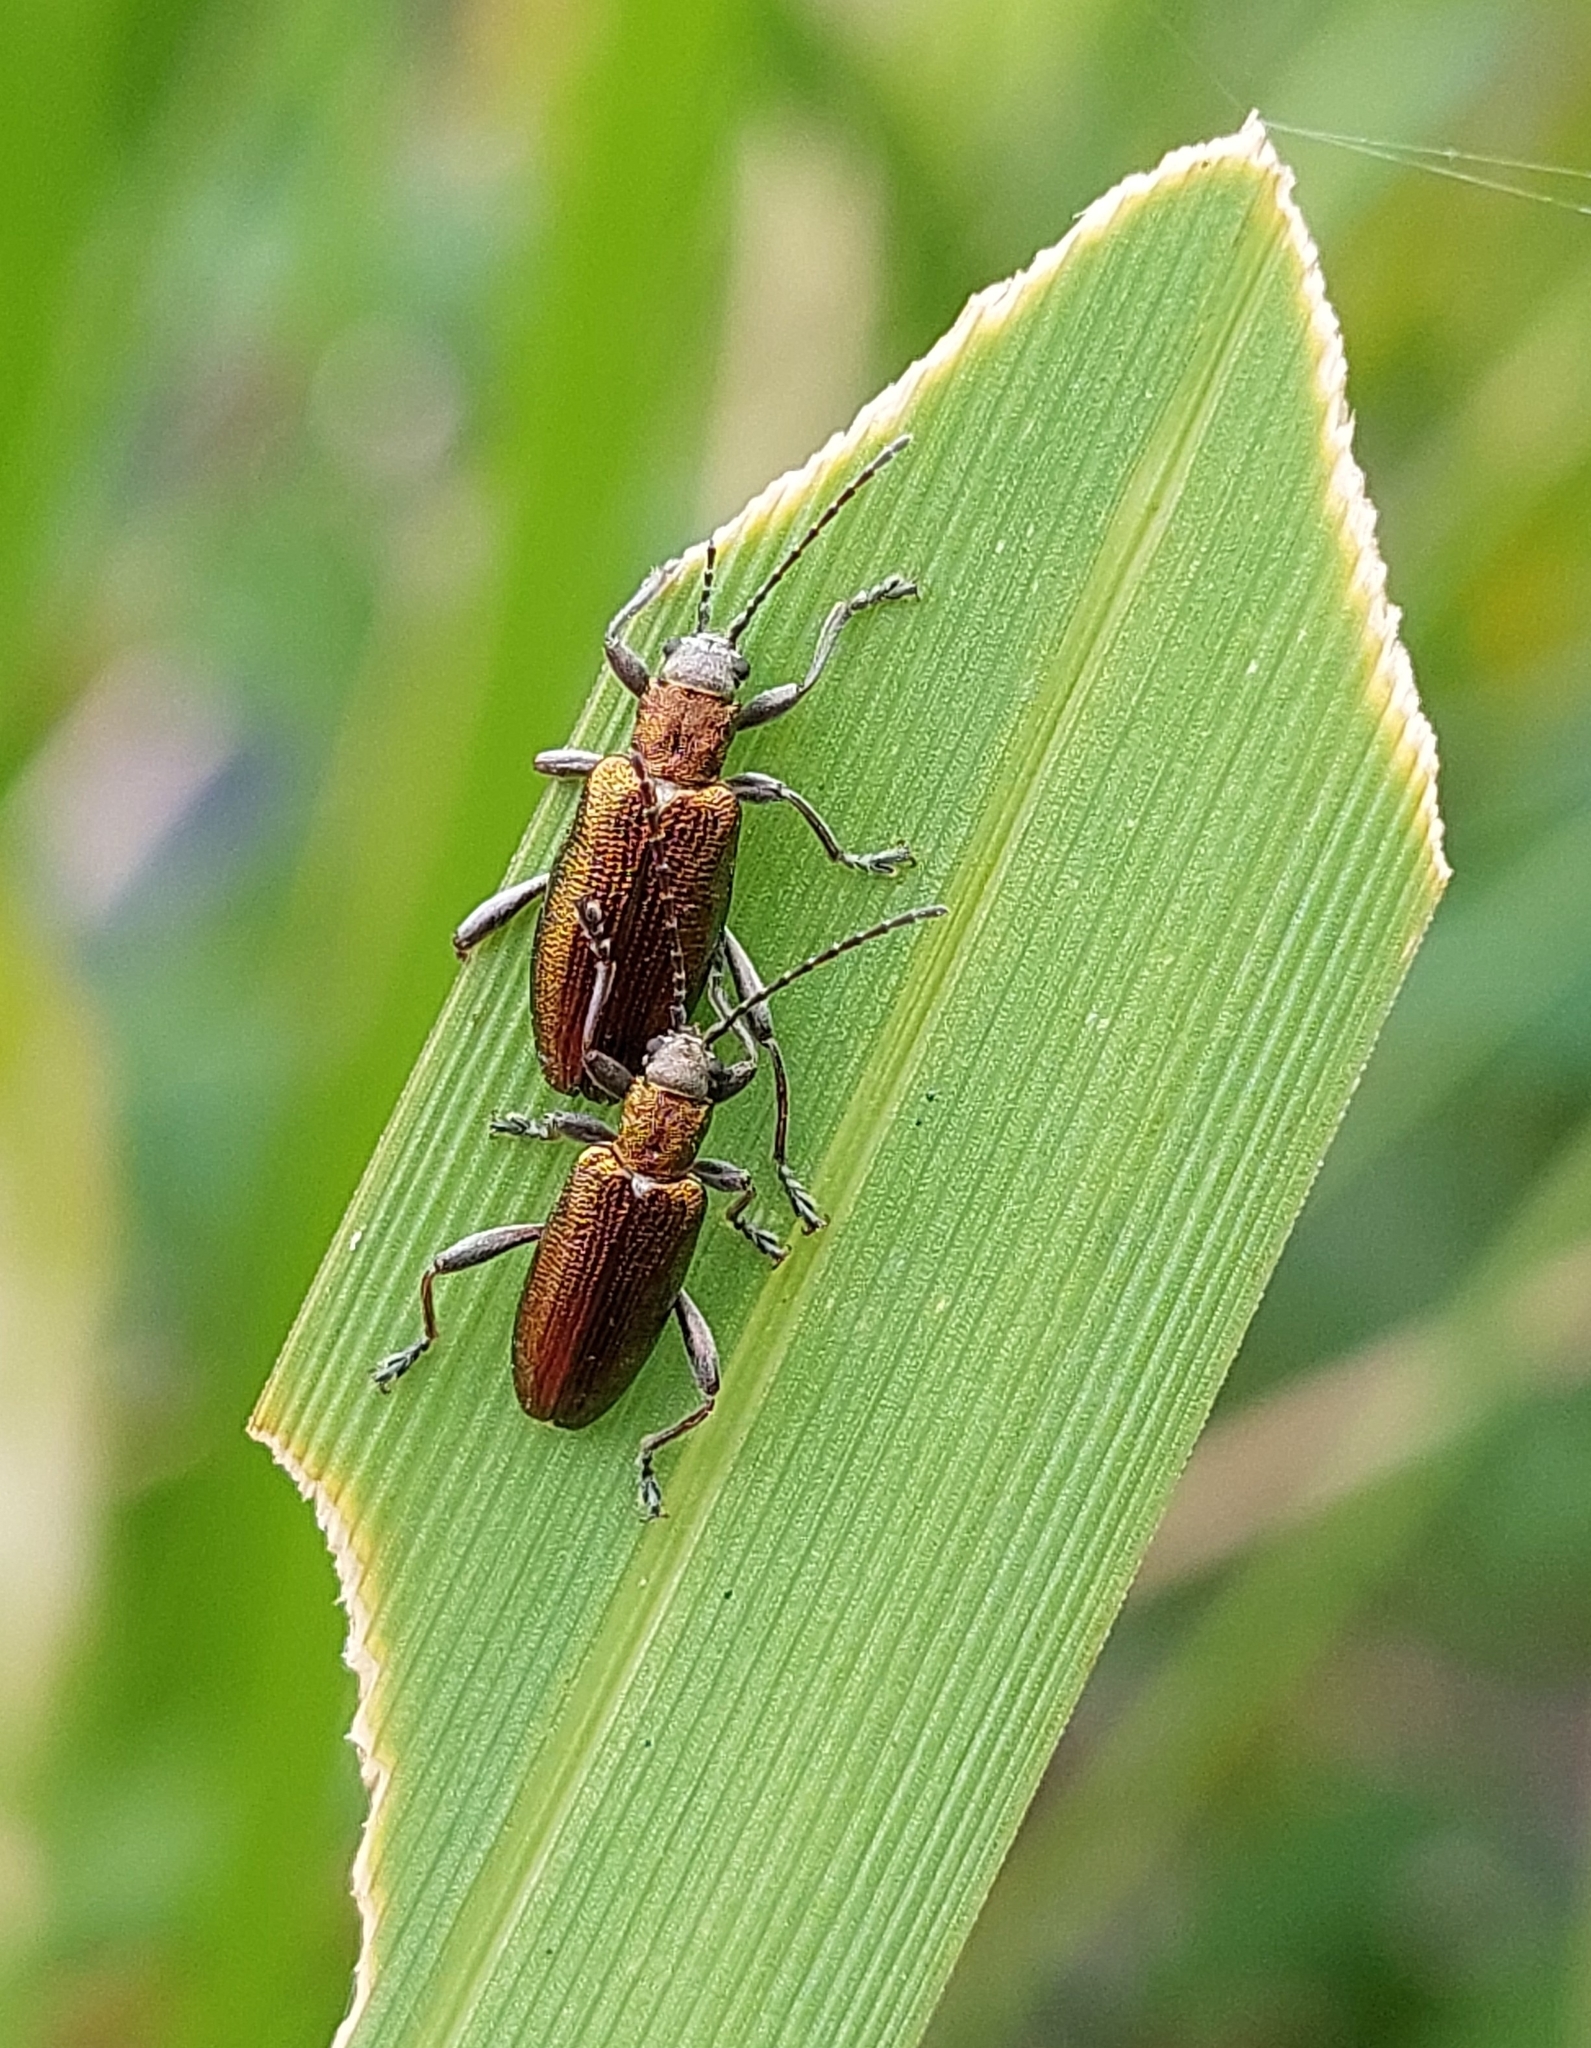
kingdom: Animalia
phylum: Arthropoda
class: Insecta
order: Coleoptera
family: Chrysomelidae
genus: Donacia
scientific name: Donacia semicuprea
